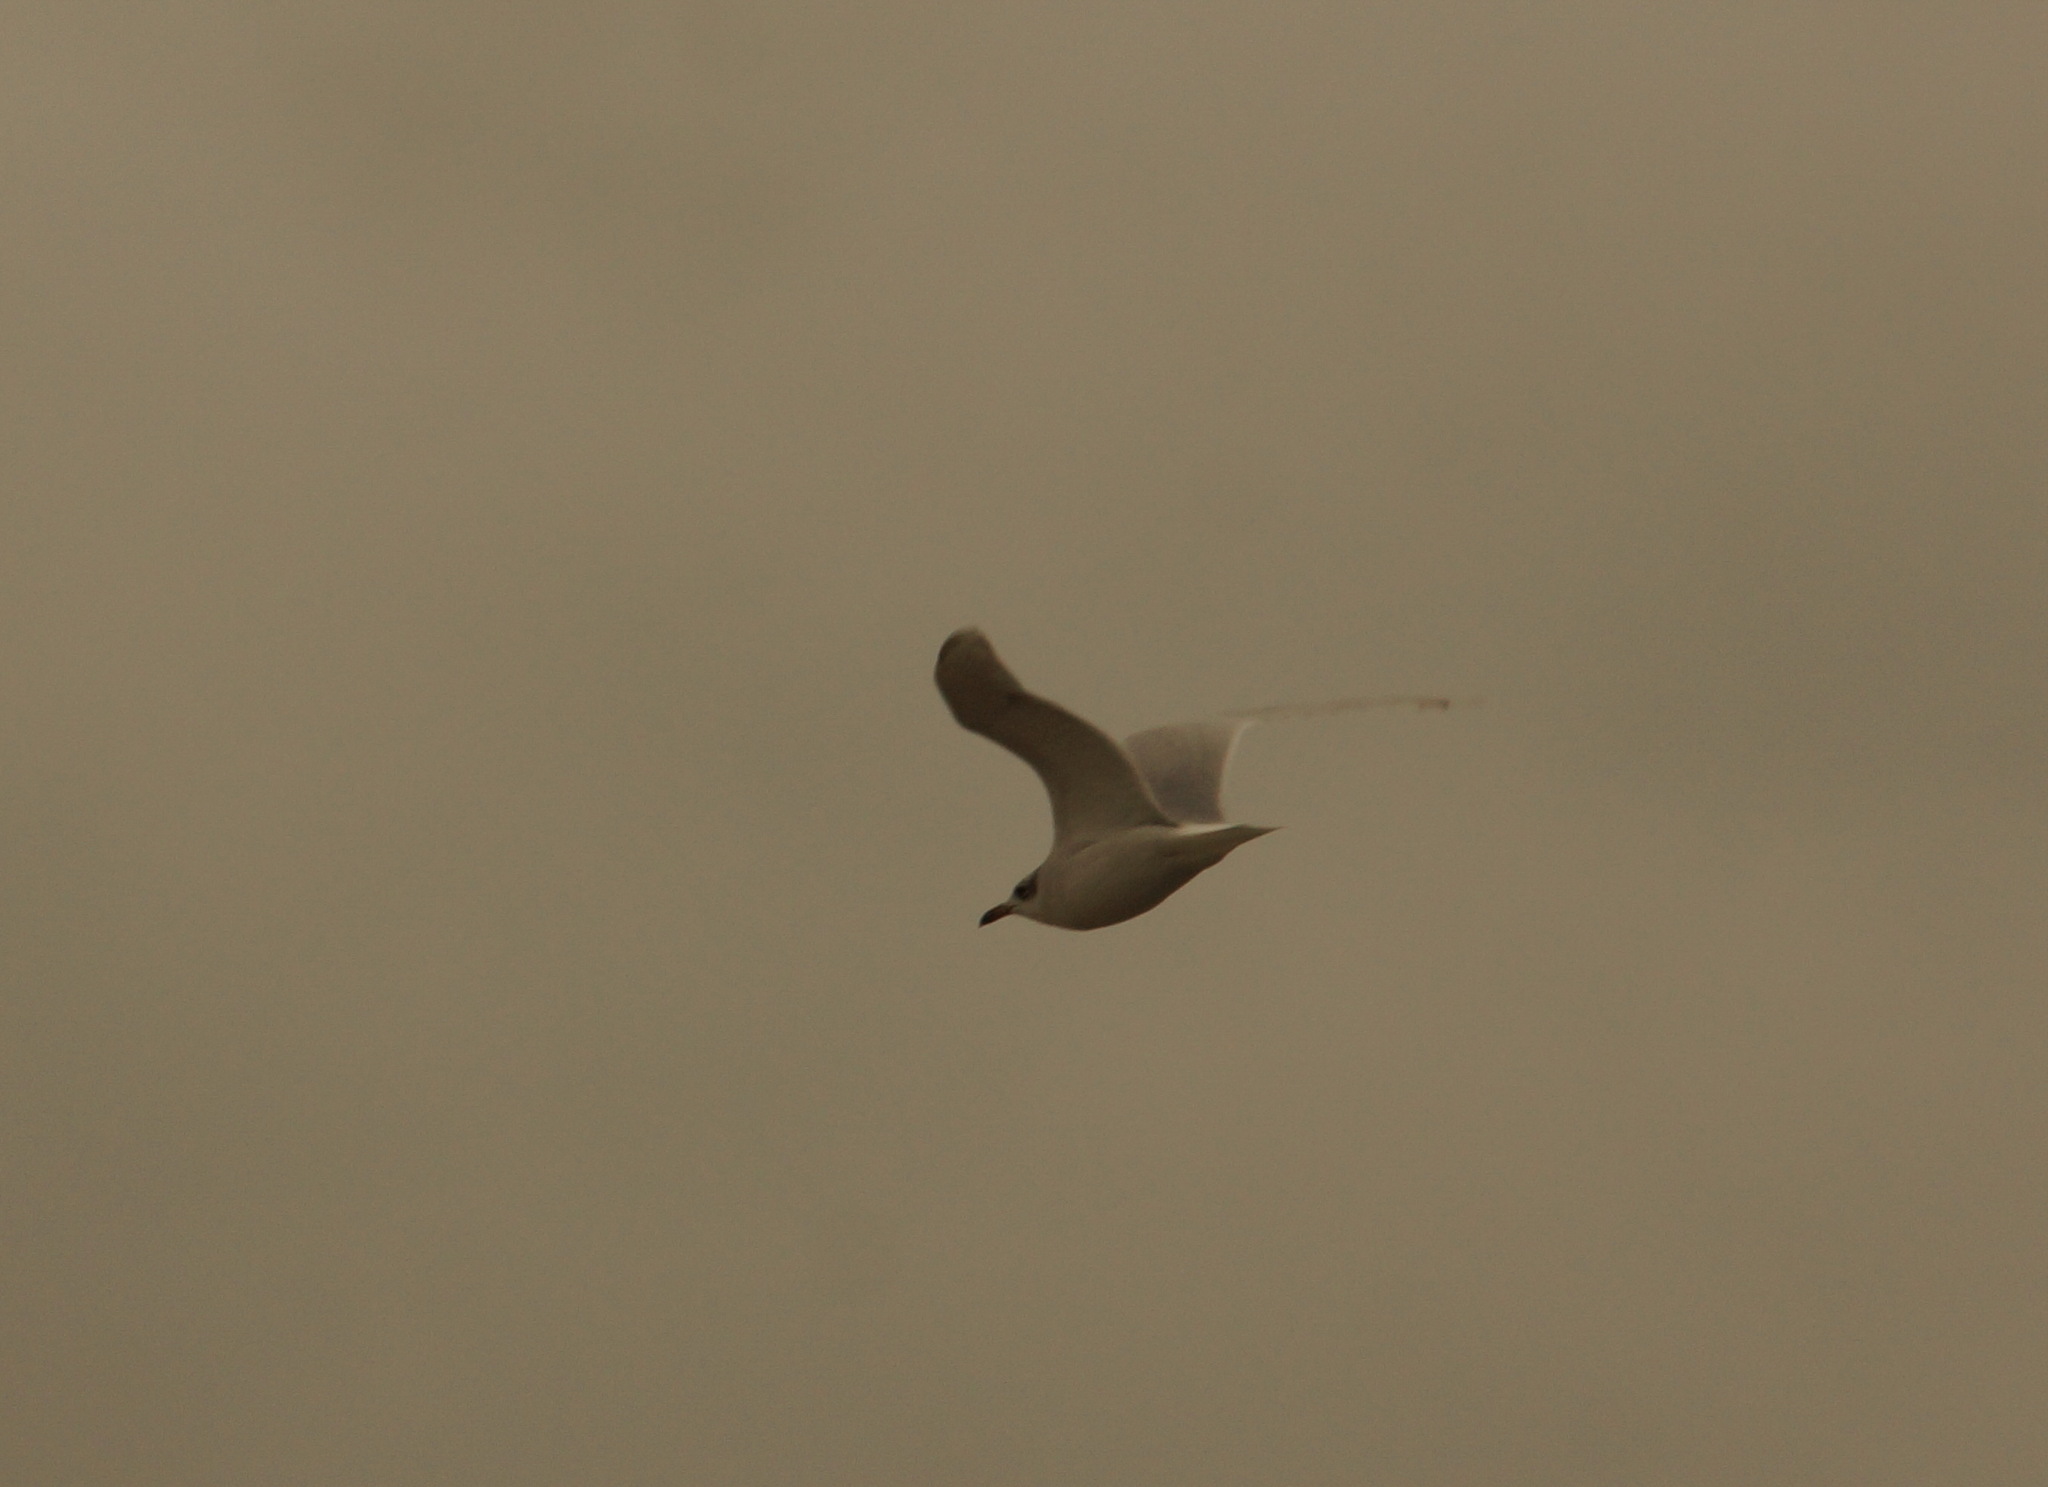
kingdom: Animalia
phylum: Chordata
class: Aves
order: Charadriiformes
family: Laridae
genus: Ichthyaetus
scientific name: Ichthyaetus melanocephalus
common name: Mediterranean gull
